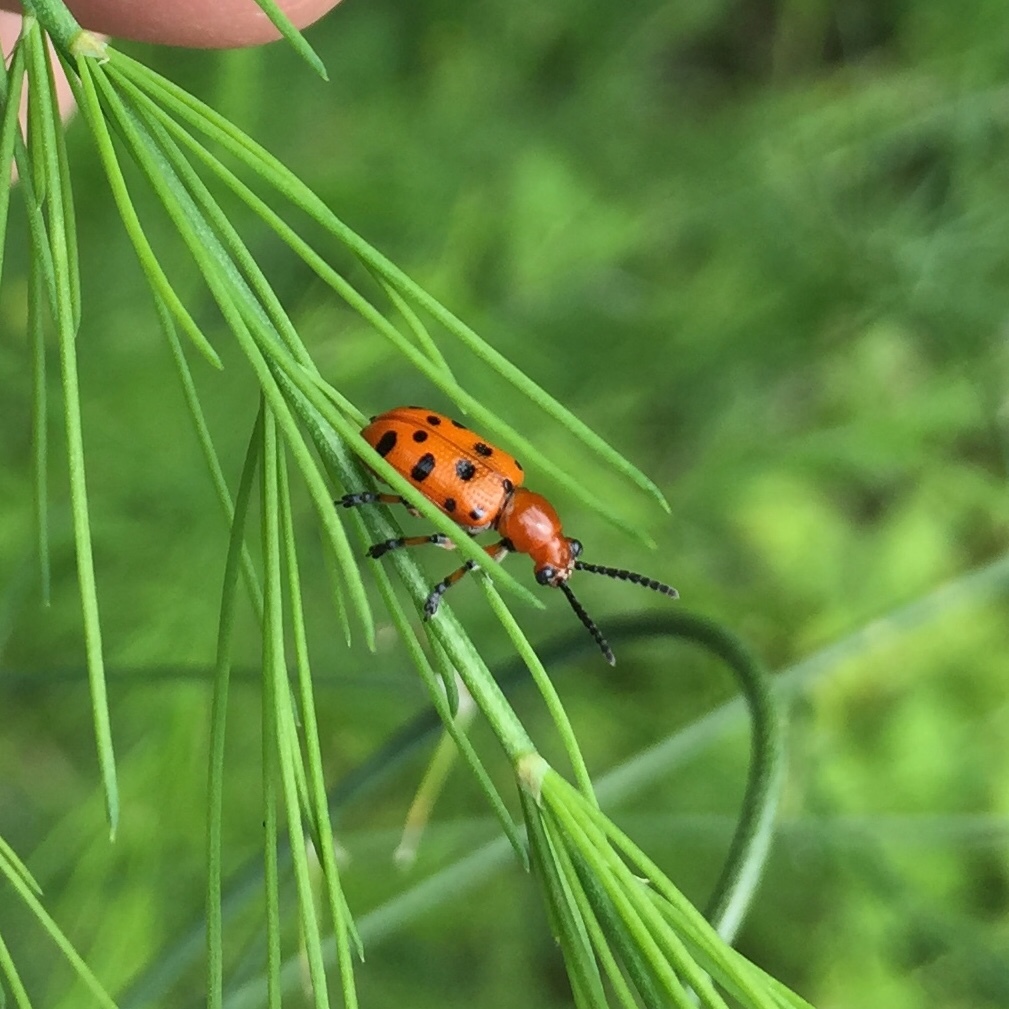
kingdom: Animalia
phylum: Arthropoda
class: Insecta
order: Coleoptera
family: Chrysomelidae
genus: Crioceris
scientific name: Crioceris duodecimpunctata
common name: Twelve-spotted asparagus beetle
